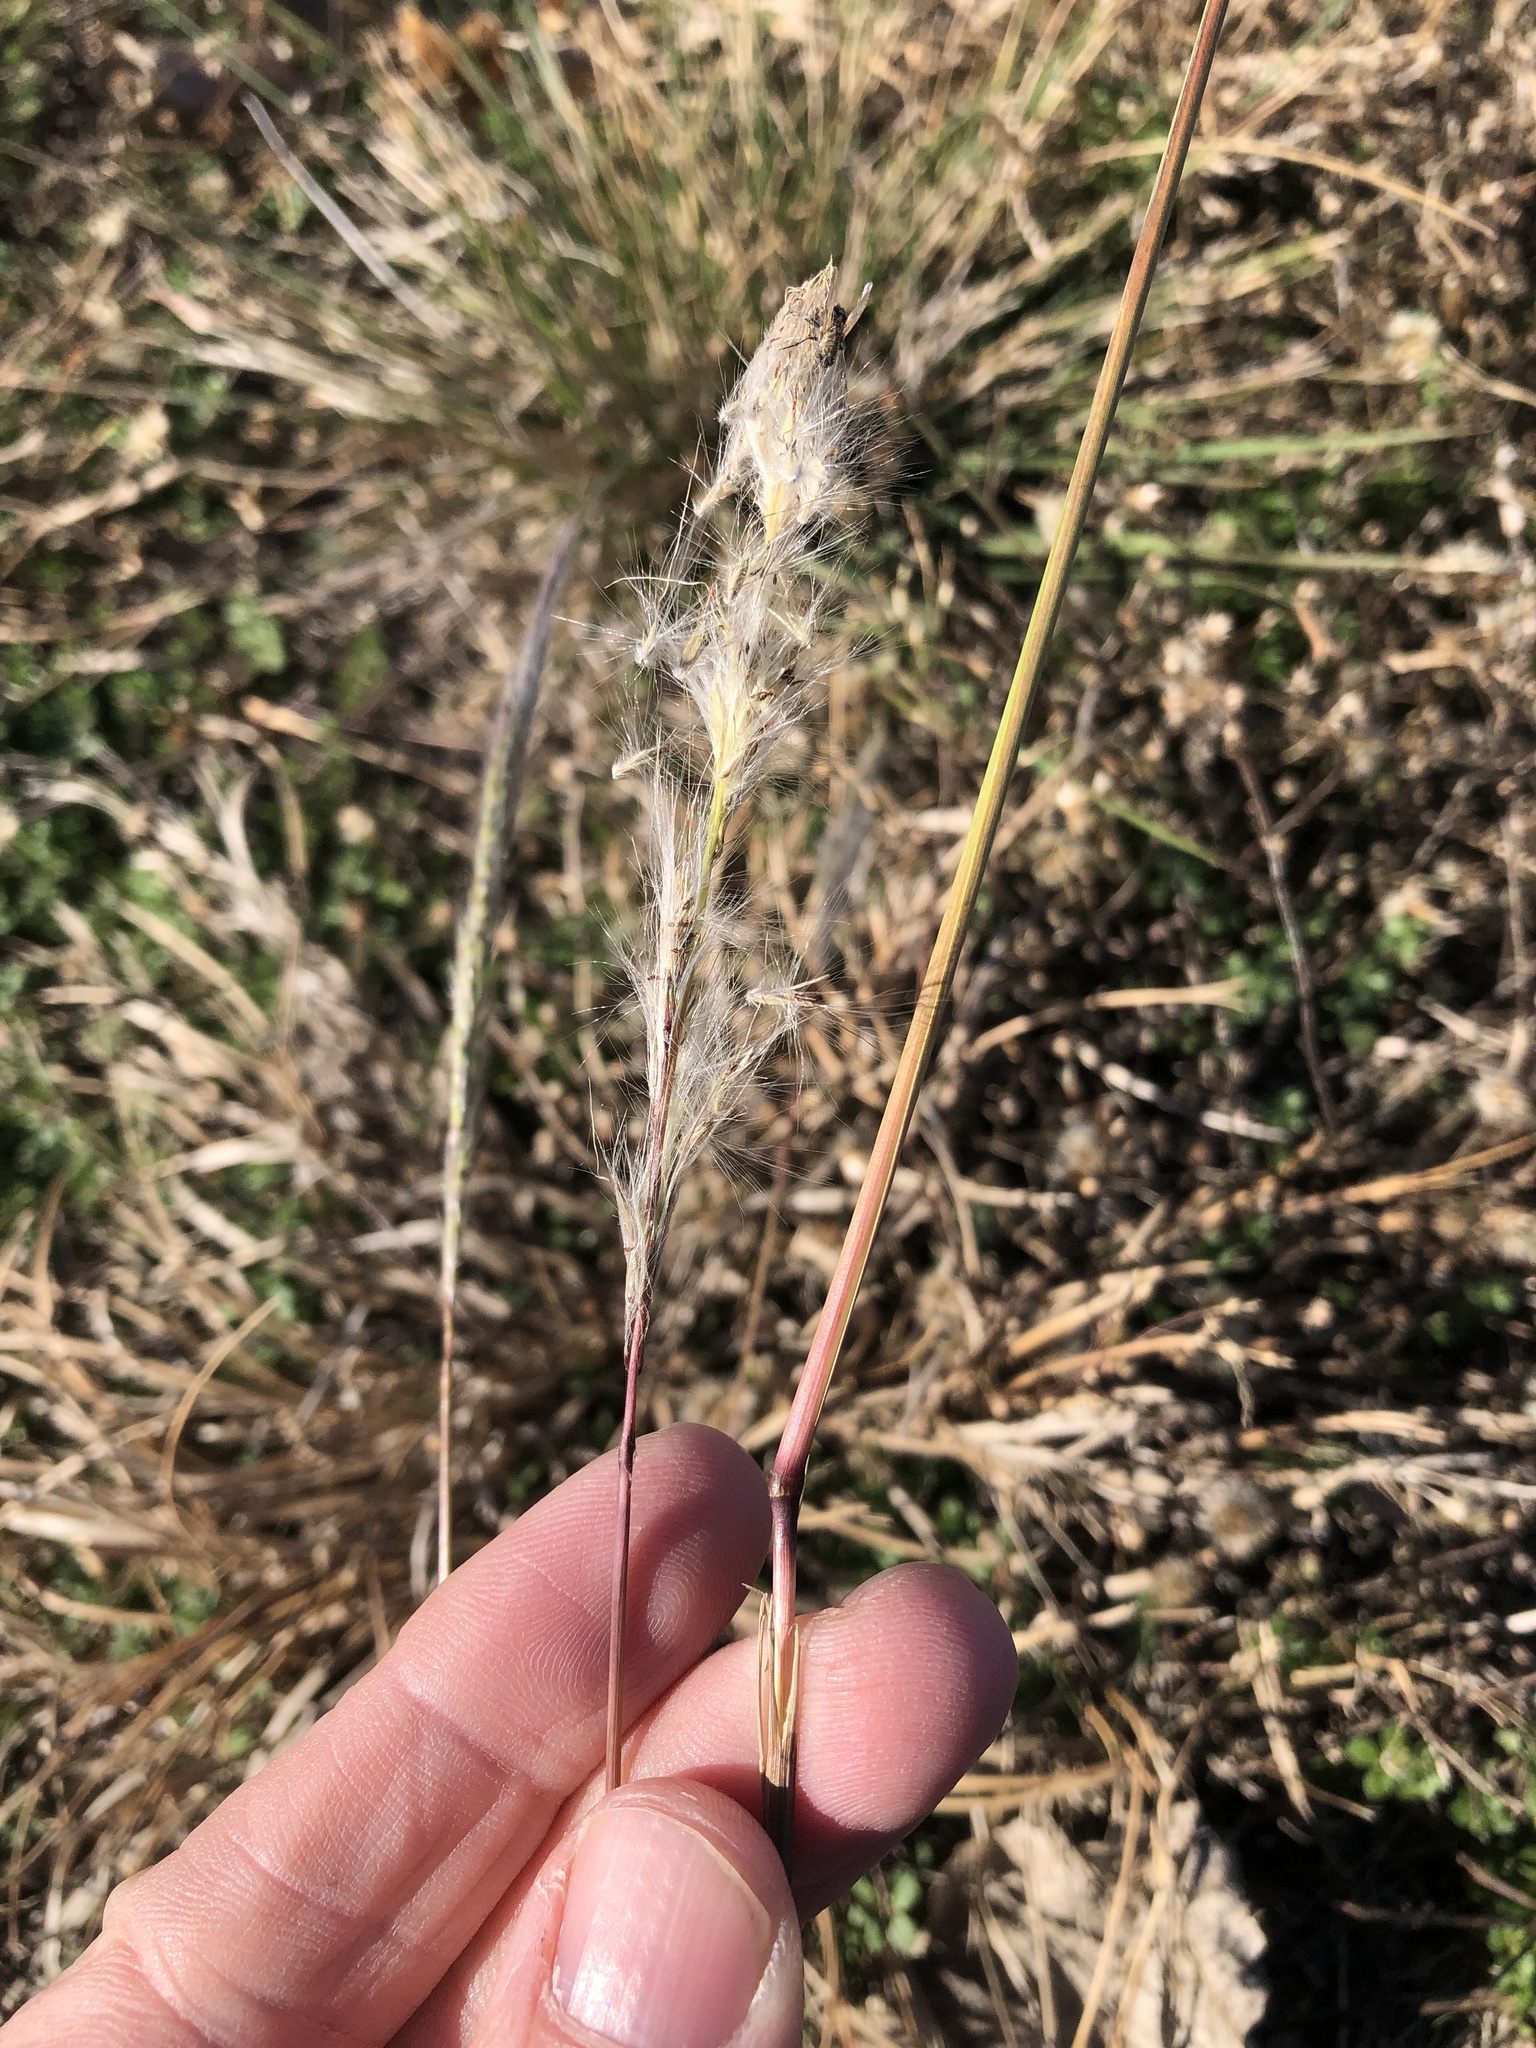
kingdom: Plantae
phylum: Tracheophyta
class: Liliopsida
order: Poales
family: Poaceae
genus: Bothriochloa
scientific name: Bothriochloa torreyana
